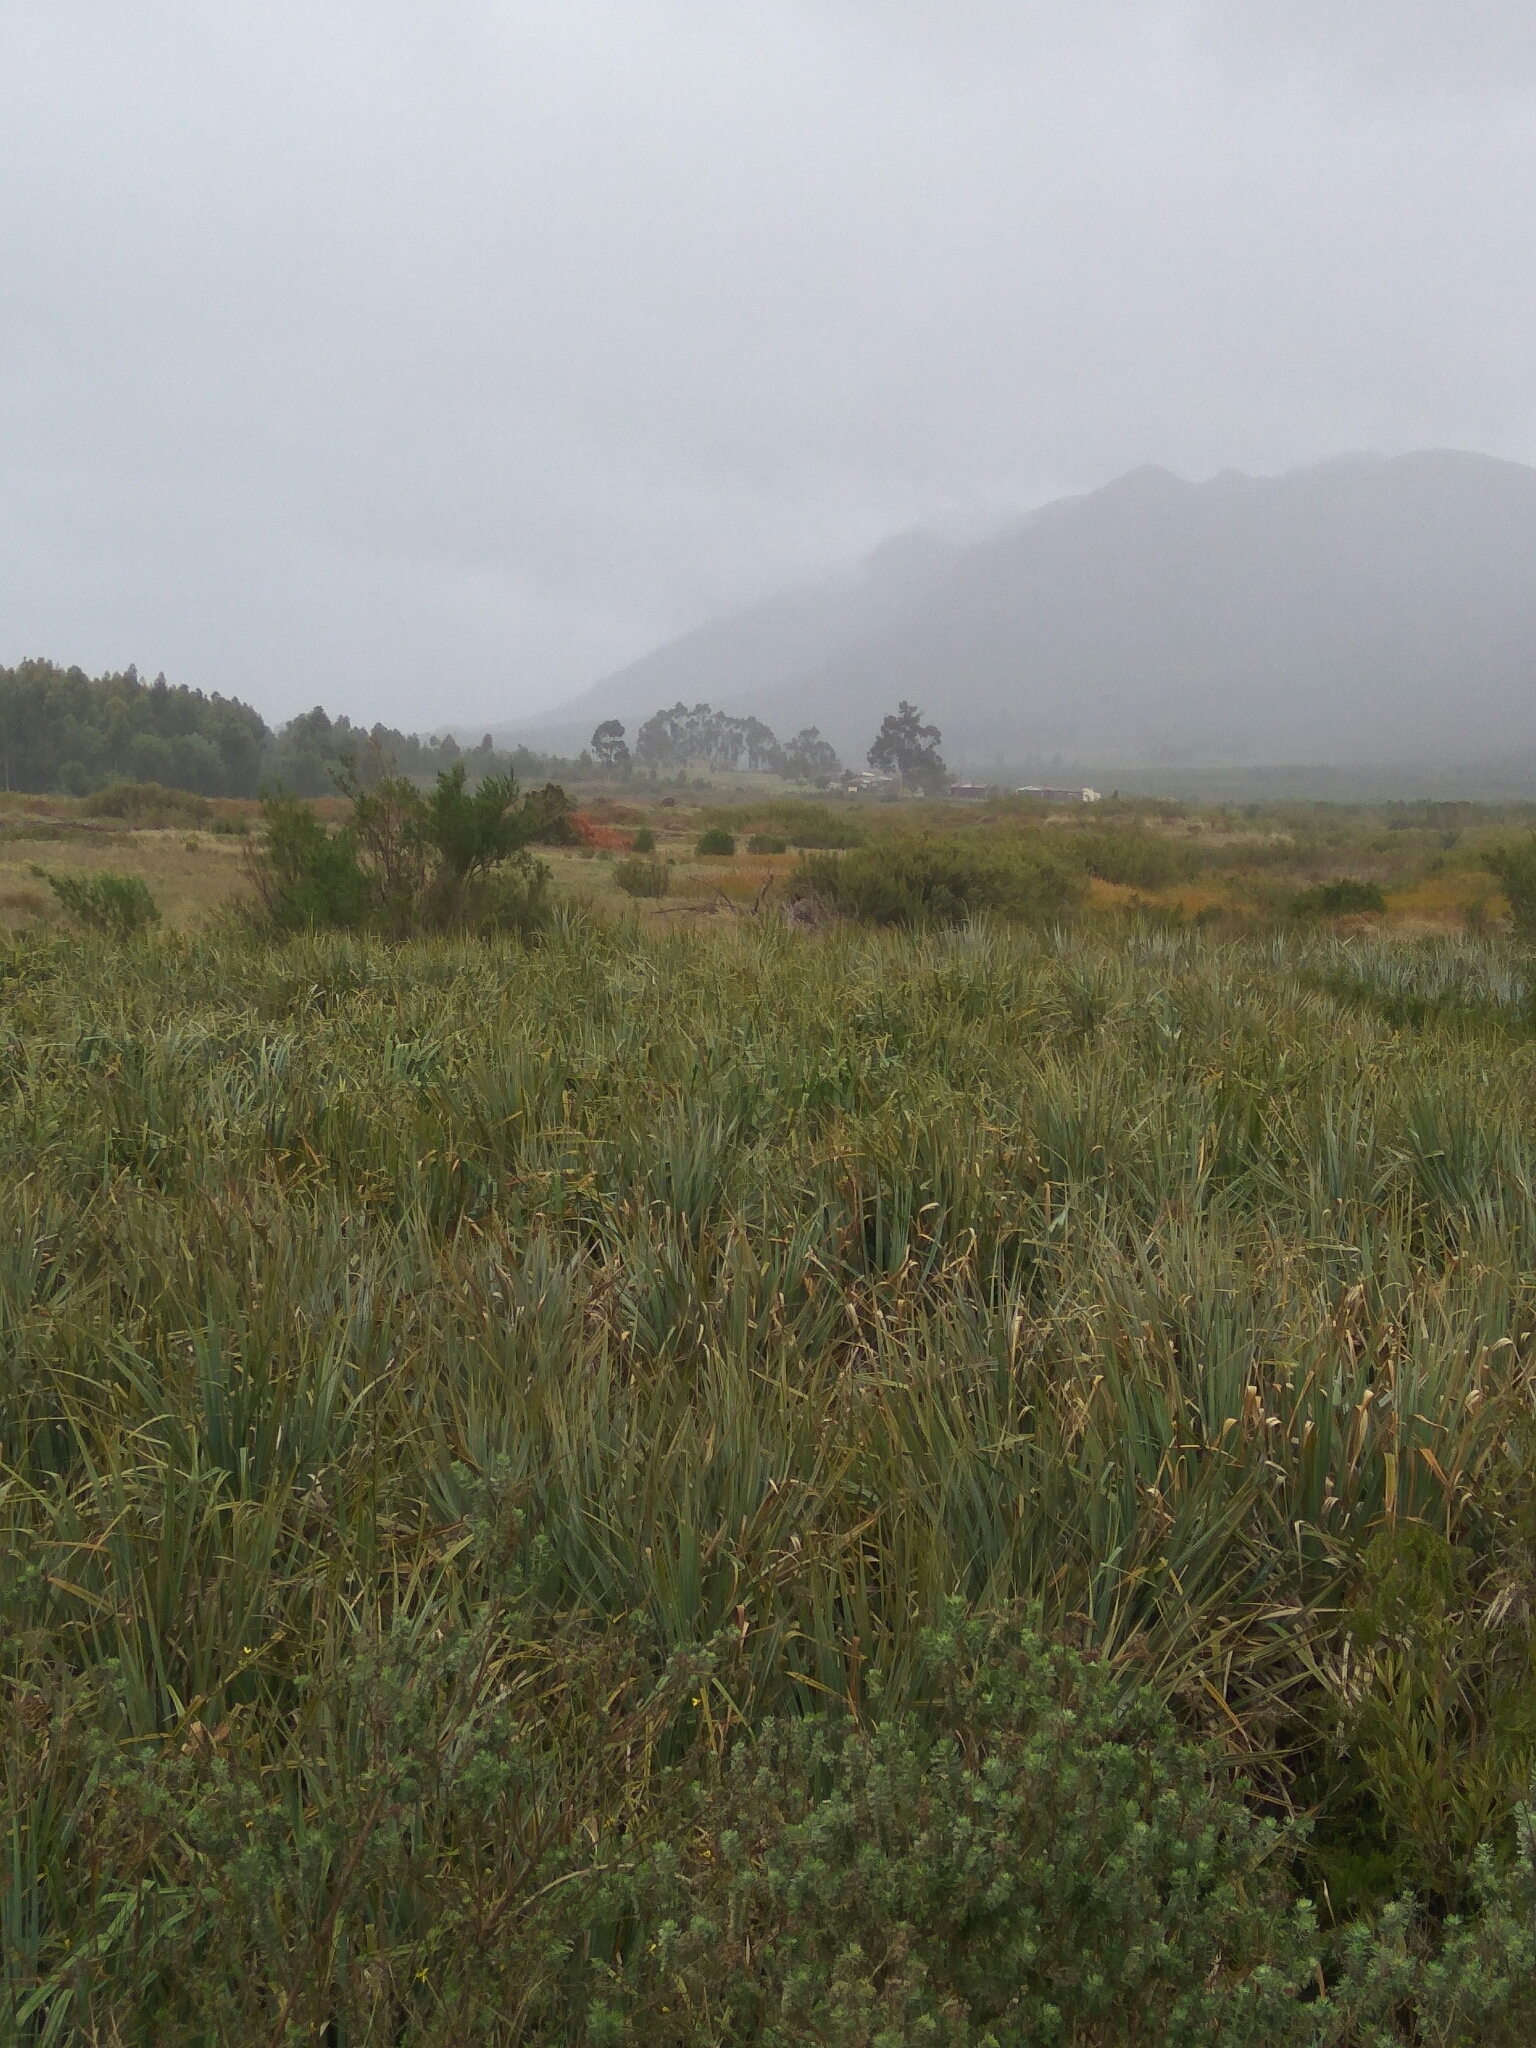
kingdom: Plantae
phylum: Tracheophyta
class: Liliopsida
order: Poales
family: Thurniaceae
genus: Prionium
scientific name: Prionium serratum
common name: Palmiet
